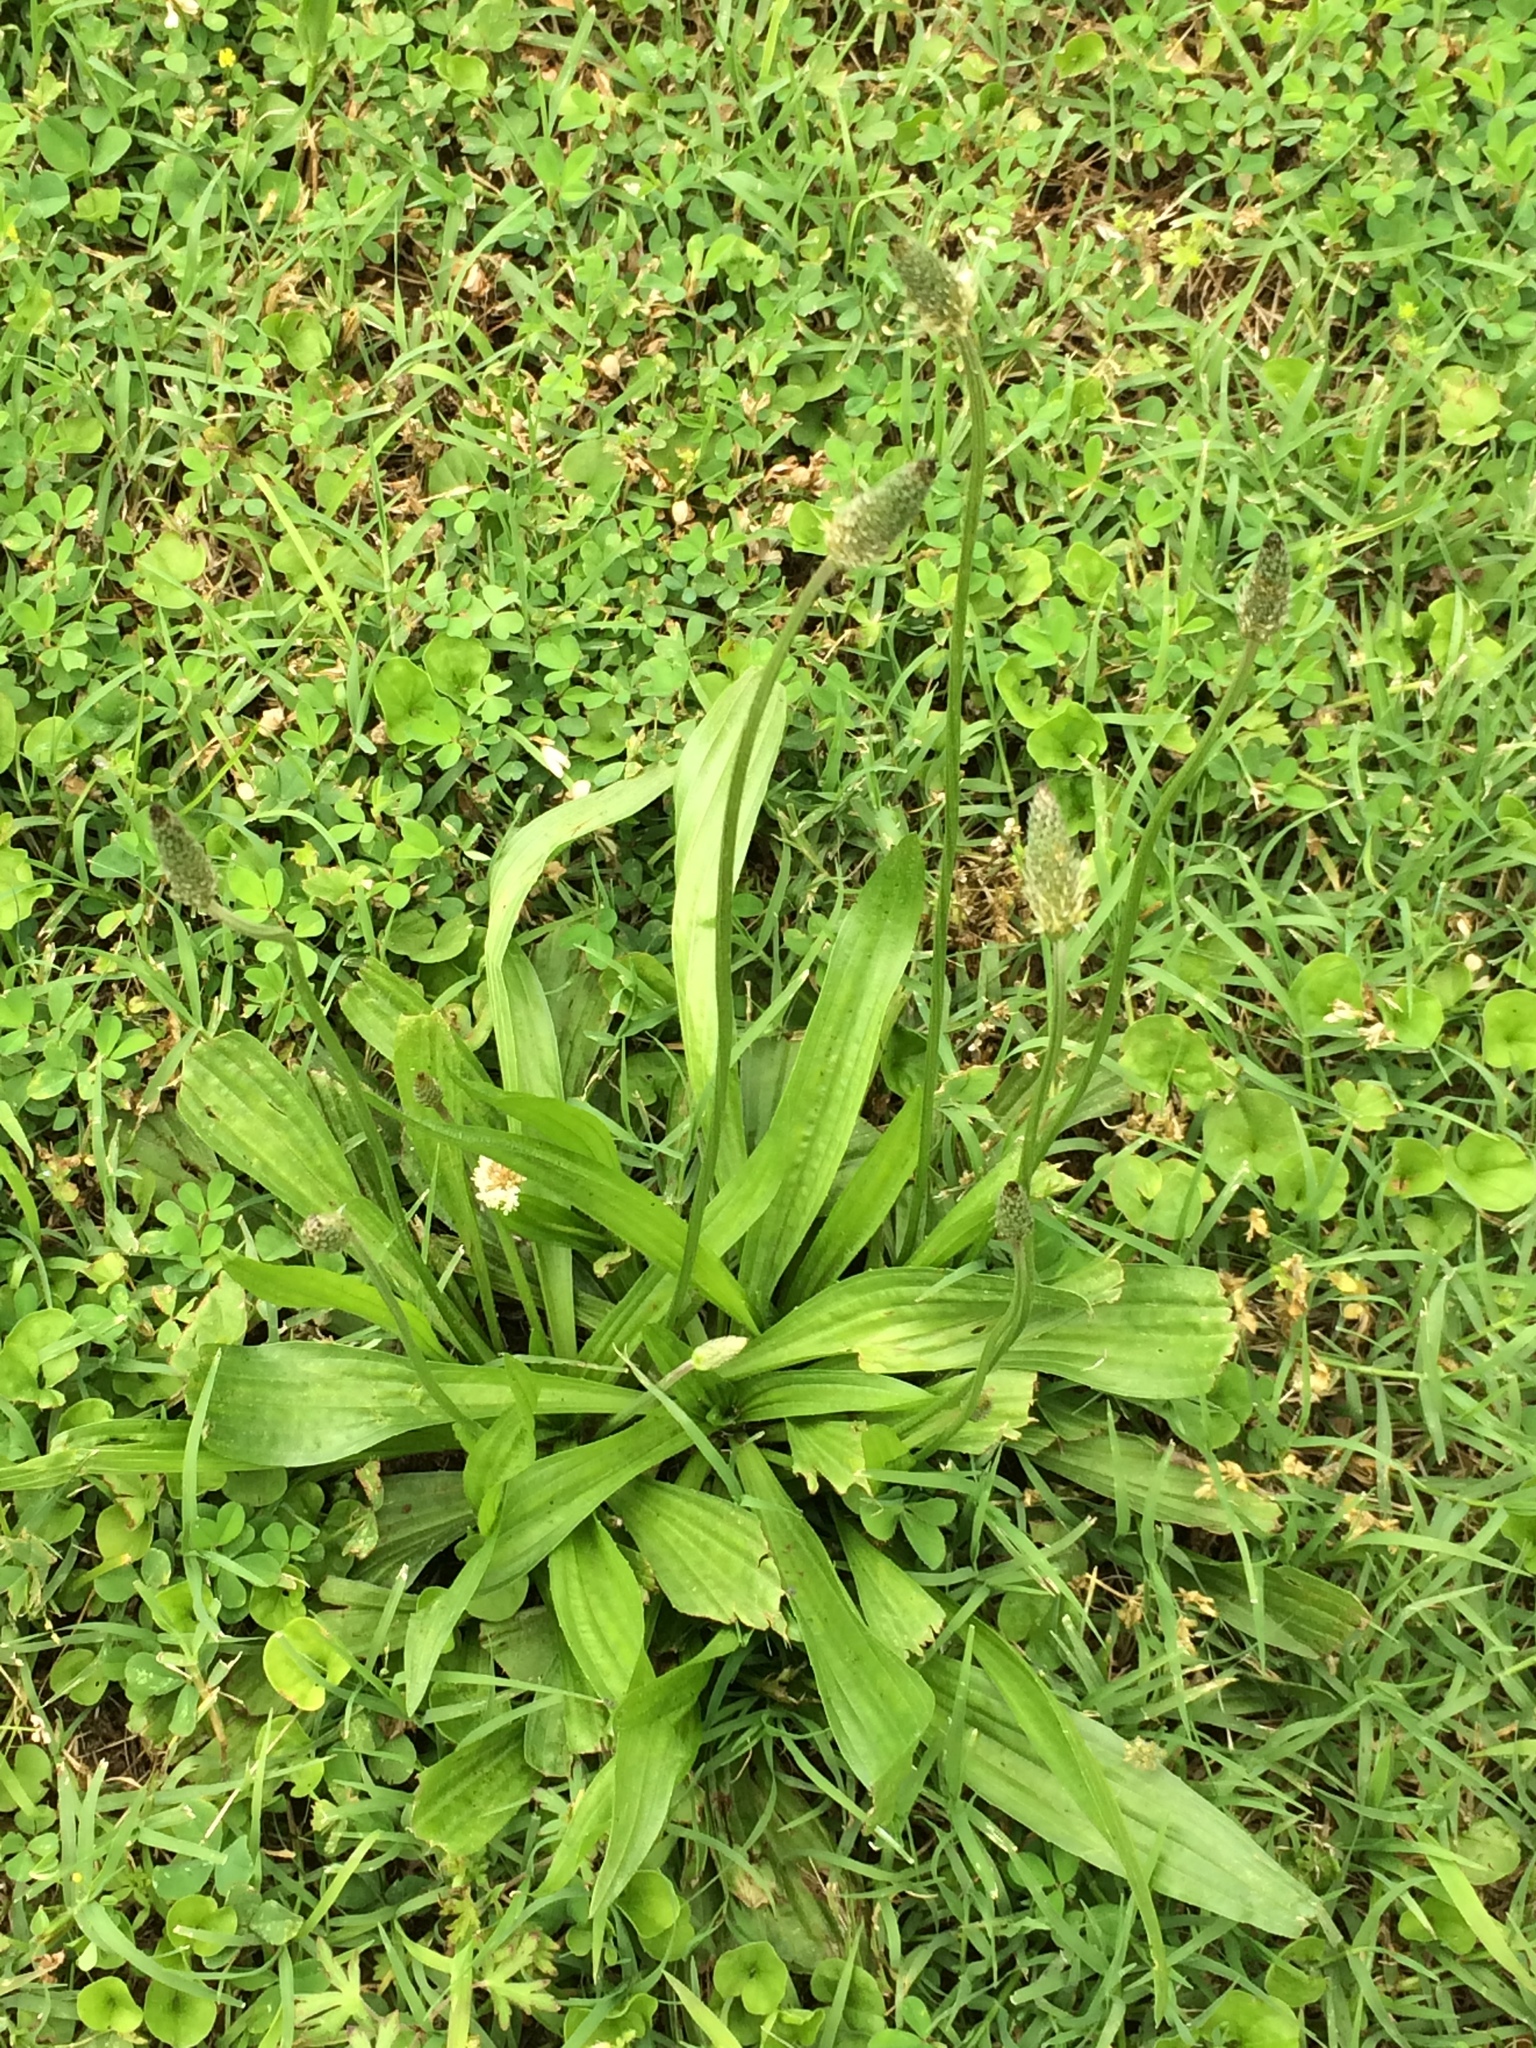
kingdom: Plantae
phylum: Tracheophyta
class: Magnoliopsida
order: Lamiales
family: Plantaginaceae
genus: Plantago
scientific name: Plantago lanceolata
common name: Ribwort plantain
